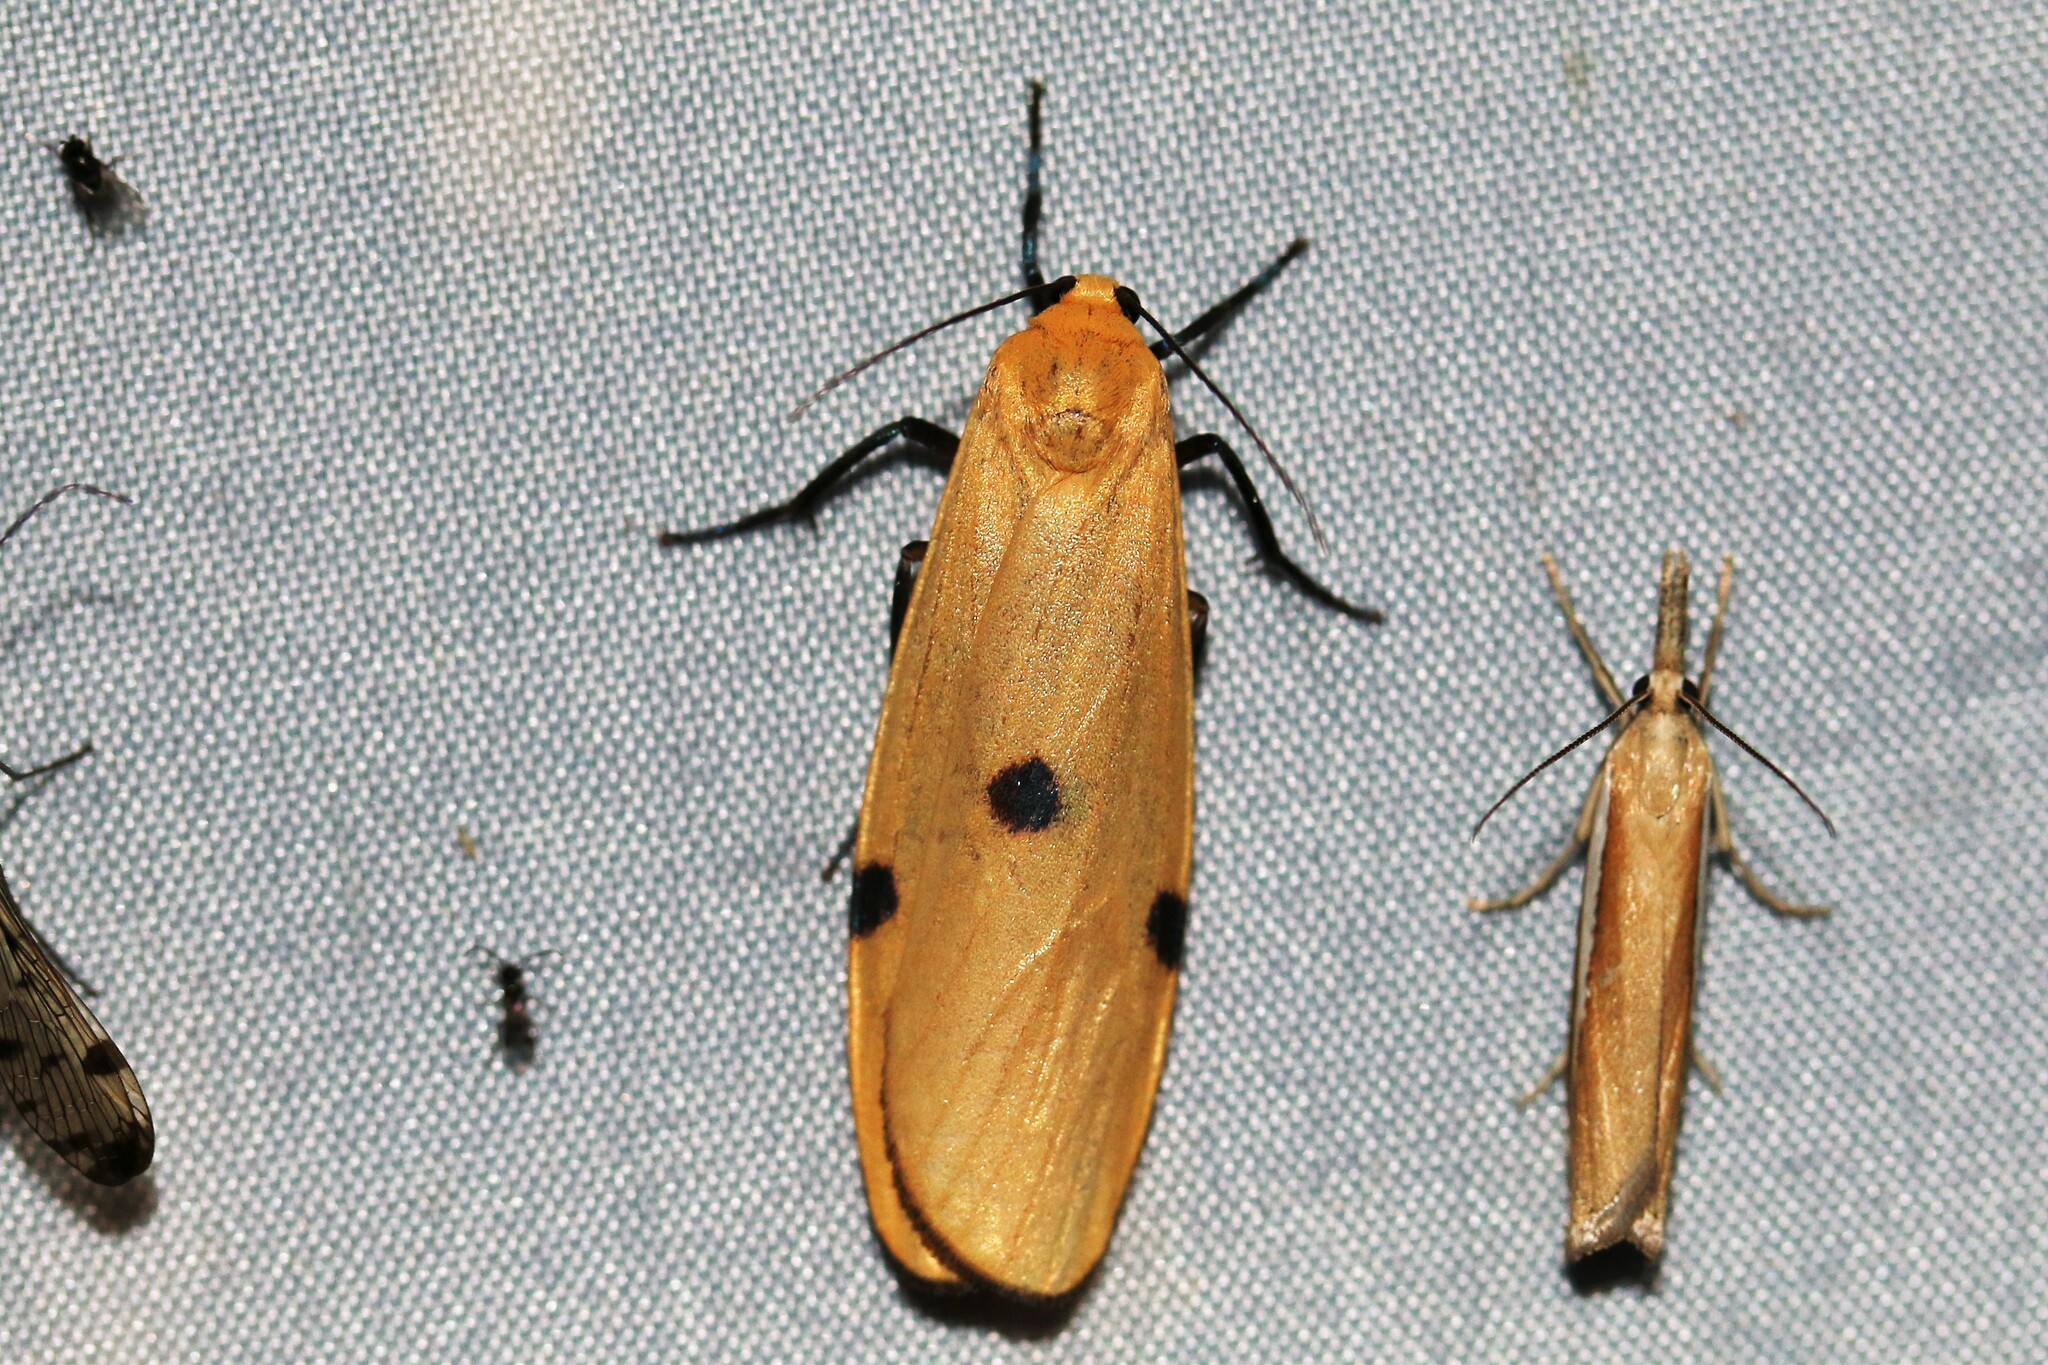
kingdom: Animalia
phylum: Arthropoda
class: Insecta
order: Lepidoptera
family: Erebidae
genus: Lithosia
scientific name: Lithosia quadra
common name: Four-spotted footman
